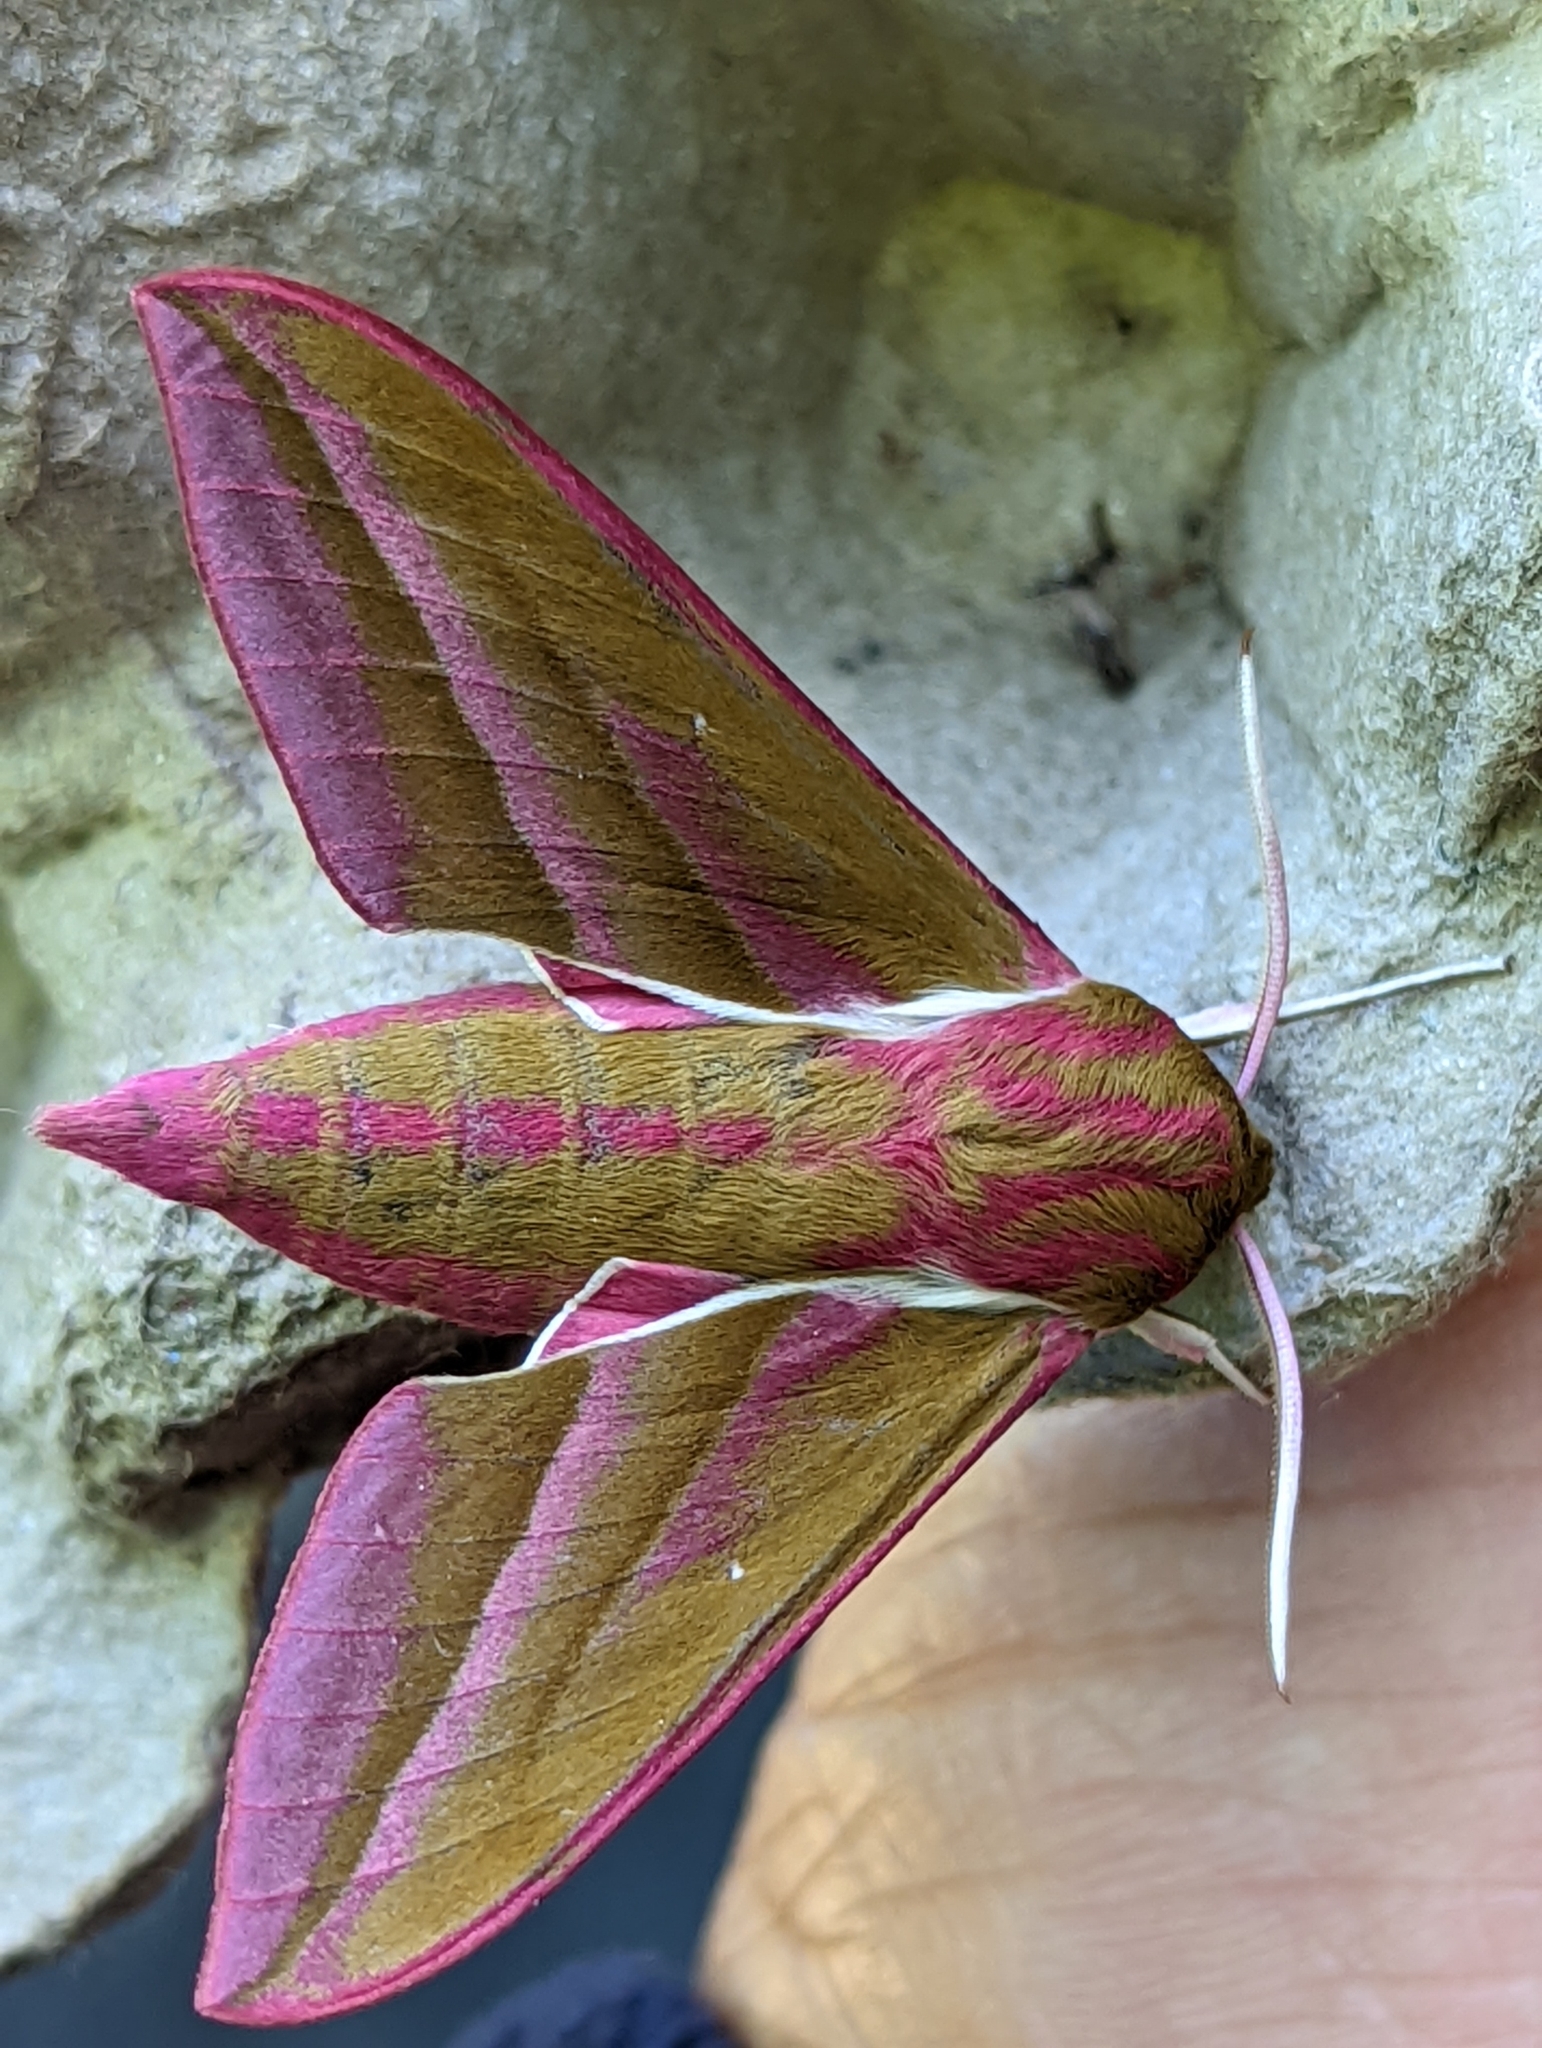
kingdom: Animalia
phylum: Arthropoda
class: Insecta
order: Lepidoptera
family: Sphingidae
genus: Deilephila
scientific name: Deilephila elpenor
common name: Elephant hawk-moth
